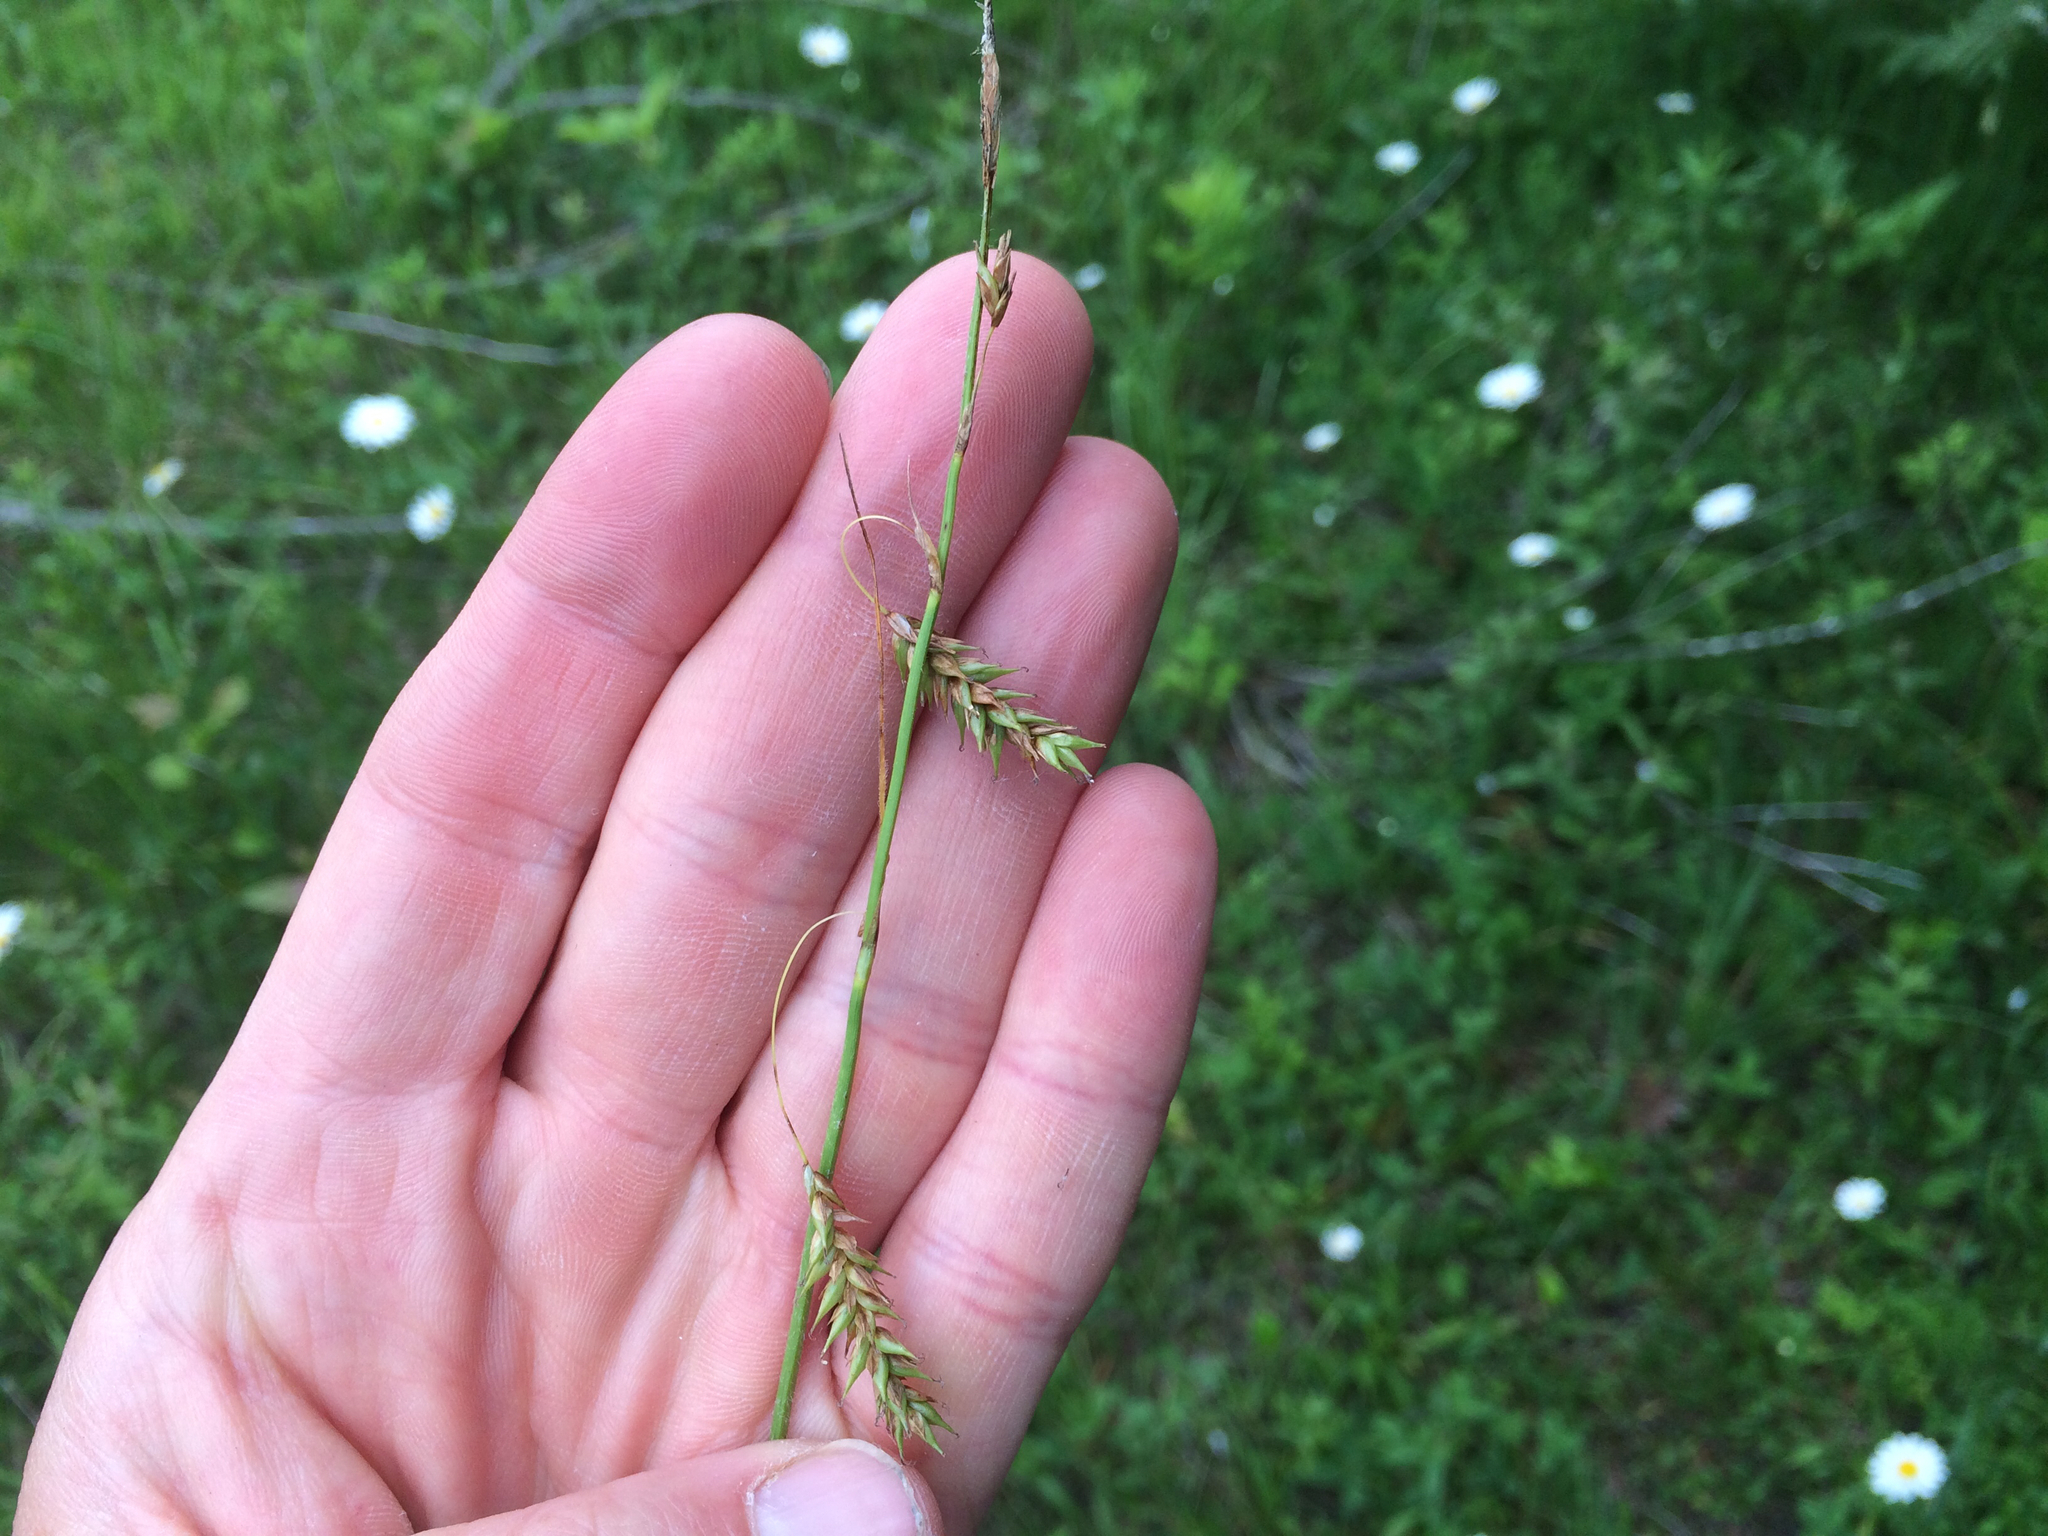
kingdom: Plantae
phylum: Tracheophyta
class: Liliopsida
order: Poales
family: Cyperaceae
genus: Carex
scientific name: Carex castanea
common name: Chestnut sedge
